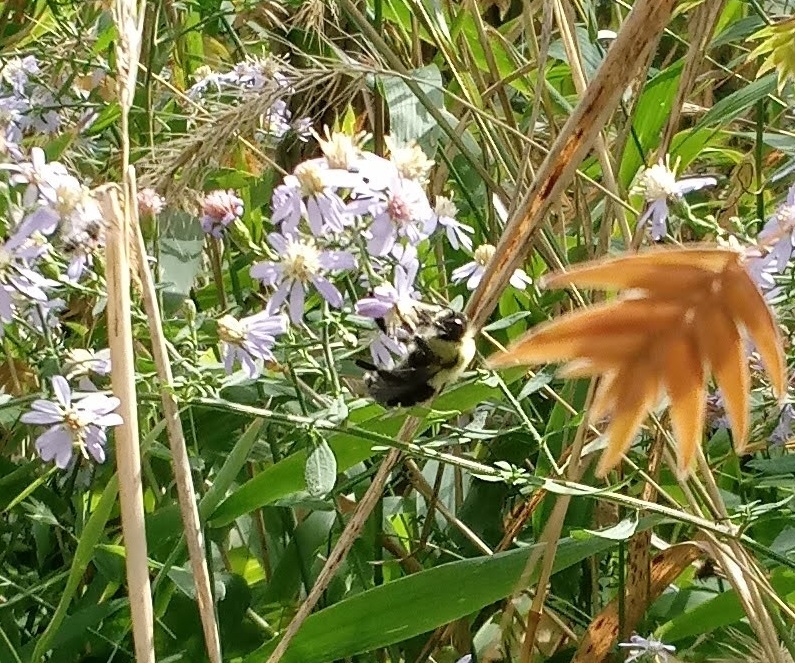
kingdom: Animalia
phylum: Arthropoda
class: Insecta
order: Hymenoptera
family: Apidae
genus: Bombus
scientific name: Bombus impatiens
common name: Common eastern bumble bee
